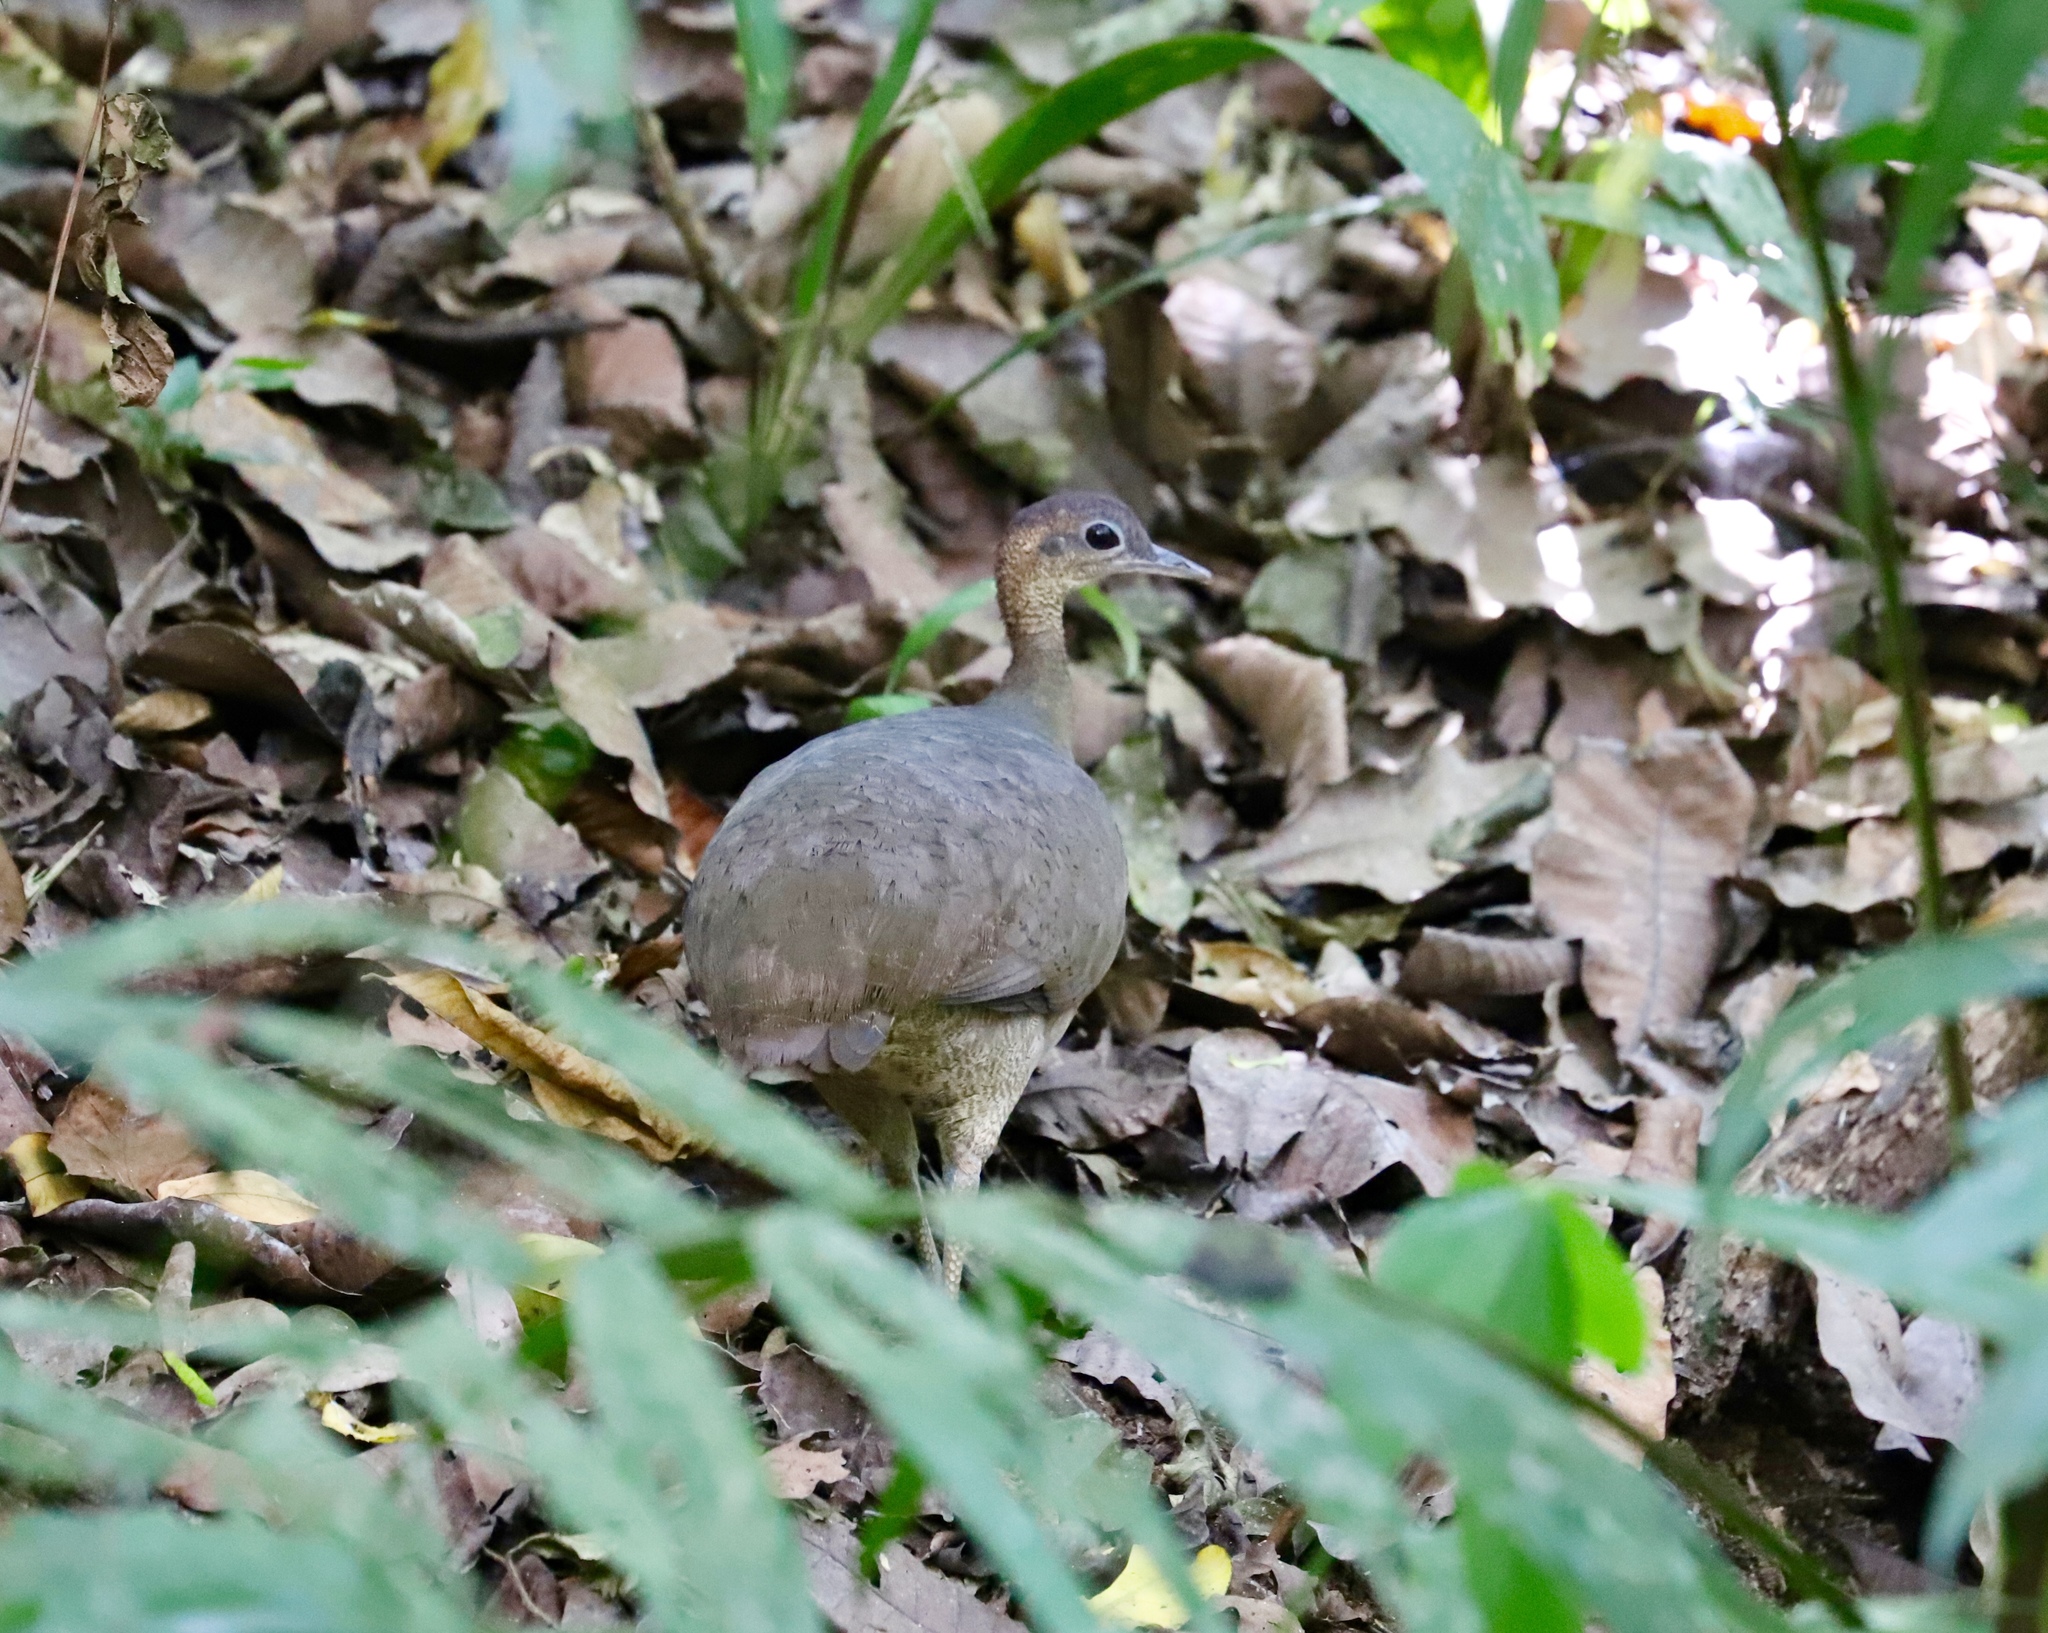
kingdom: Animalia
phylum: Chordata
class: Aves
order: Tinamiformes
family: Tinamidae
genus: Tinamus
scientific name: Tinamus major
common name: Great tinamou
